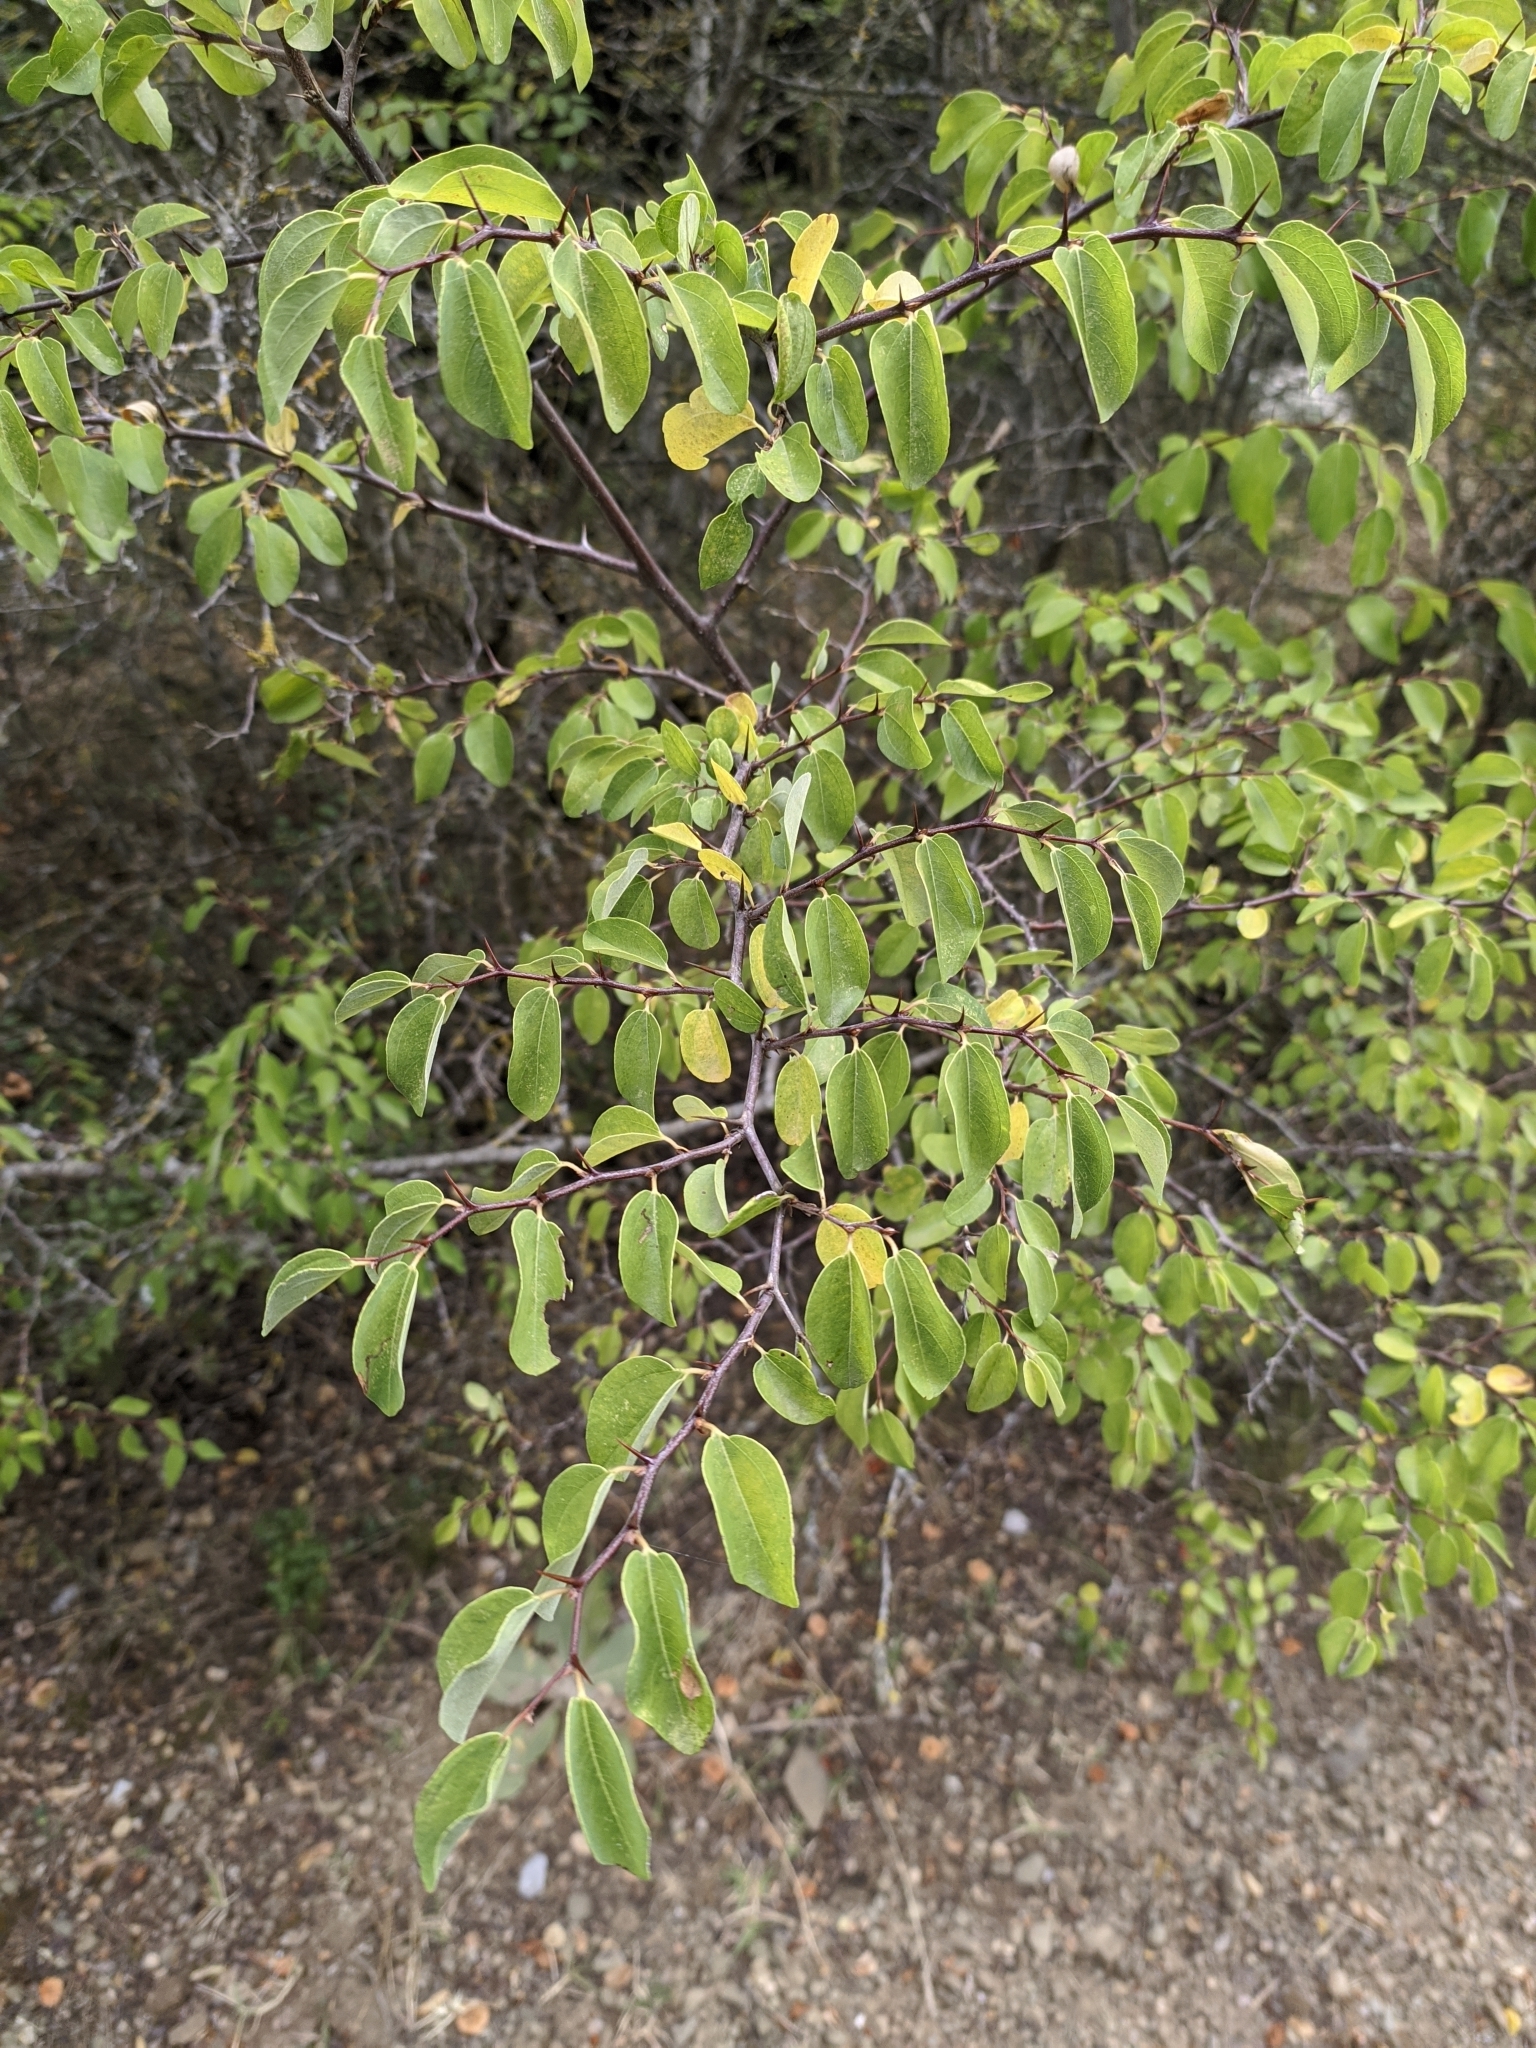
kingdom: Plantae
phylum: Tracheophyta
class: Magnoliopsida
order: Rosales
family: Rhamnaceae
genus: Paliurus
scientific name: Paliurus spina-christi
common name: Jeruselem thorn
